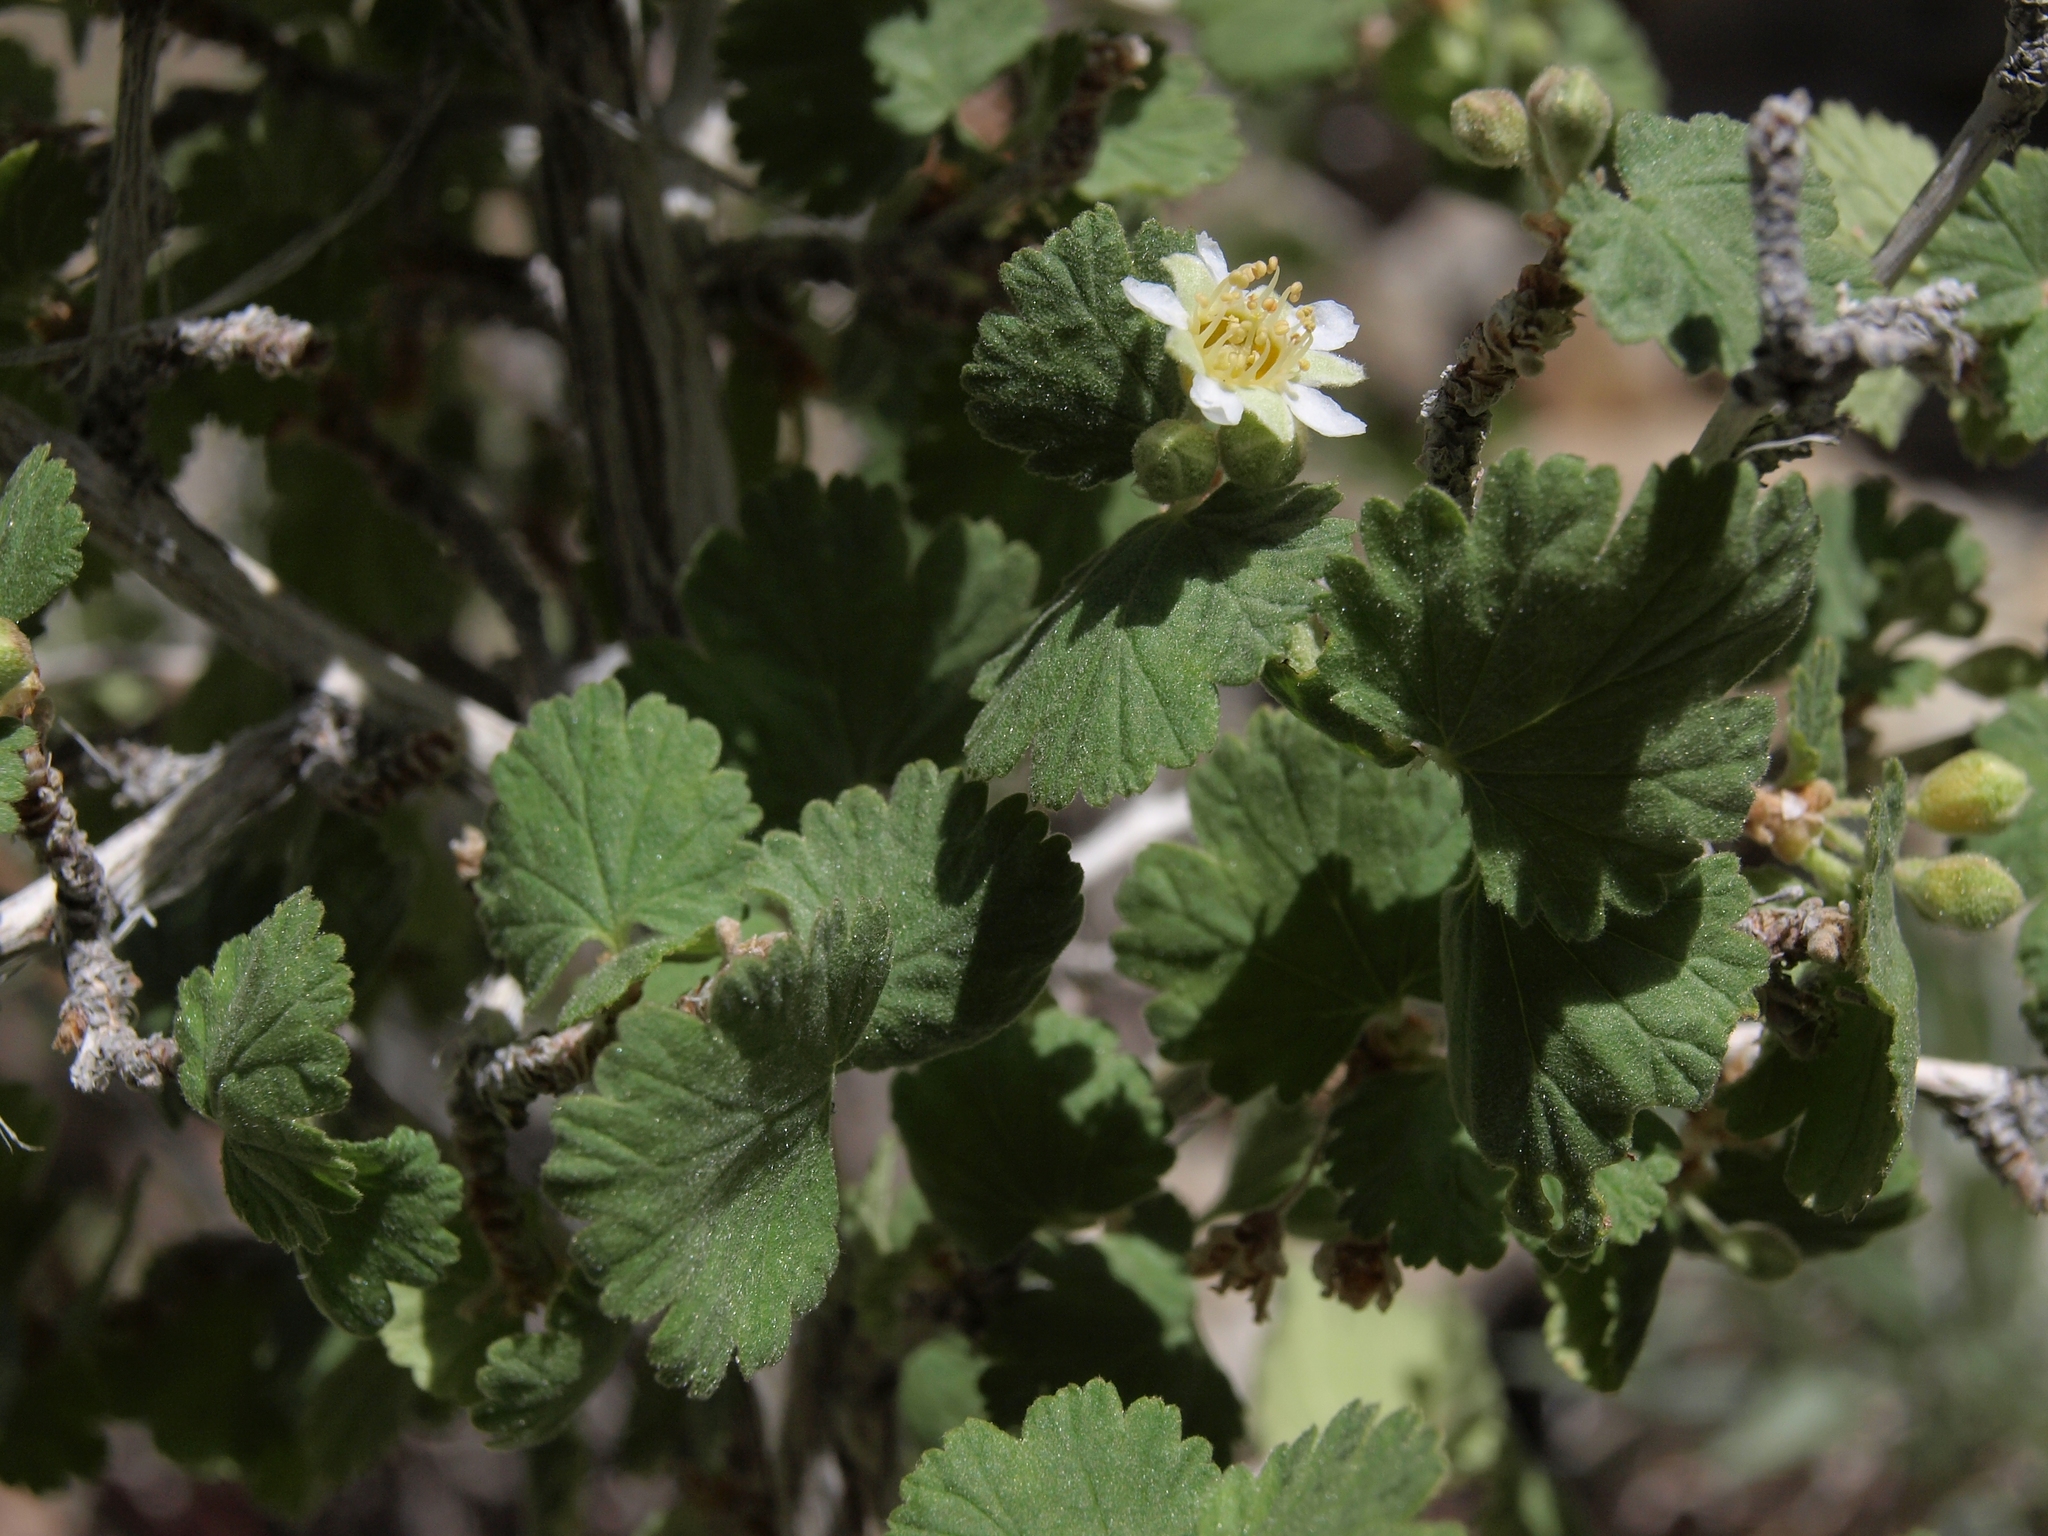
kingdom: Plantae
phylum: Tracheophyta
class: Magnoliopsida
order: Rosales
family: Rosaceae
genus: Physocarpus
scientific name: Physocarpus alternans
